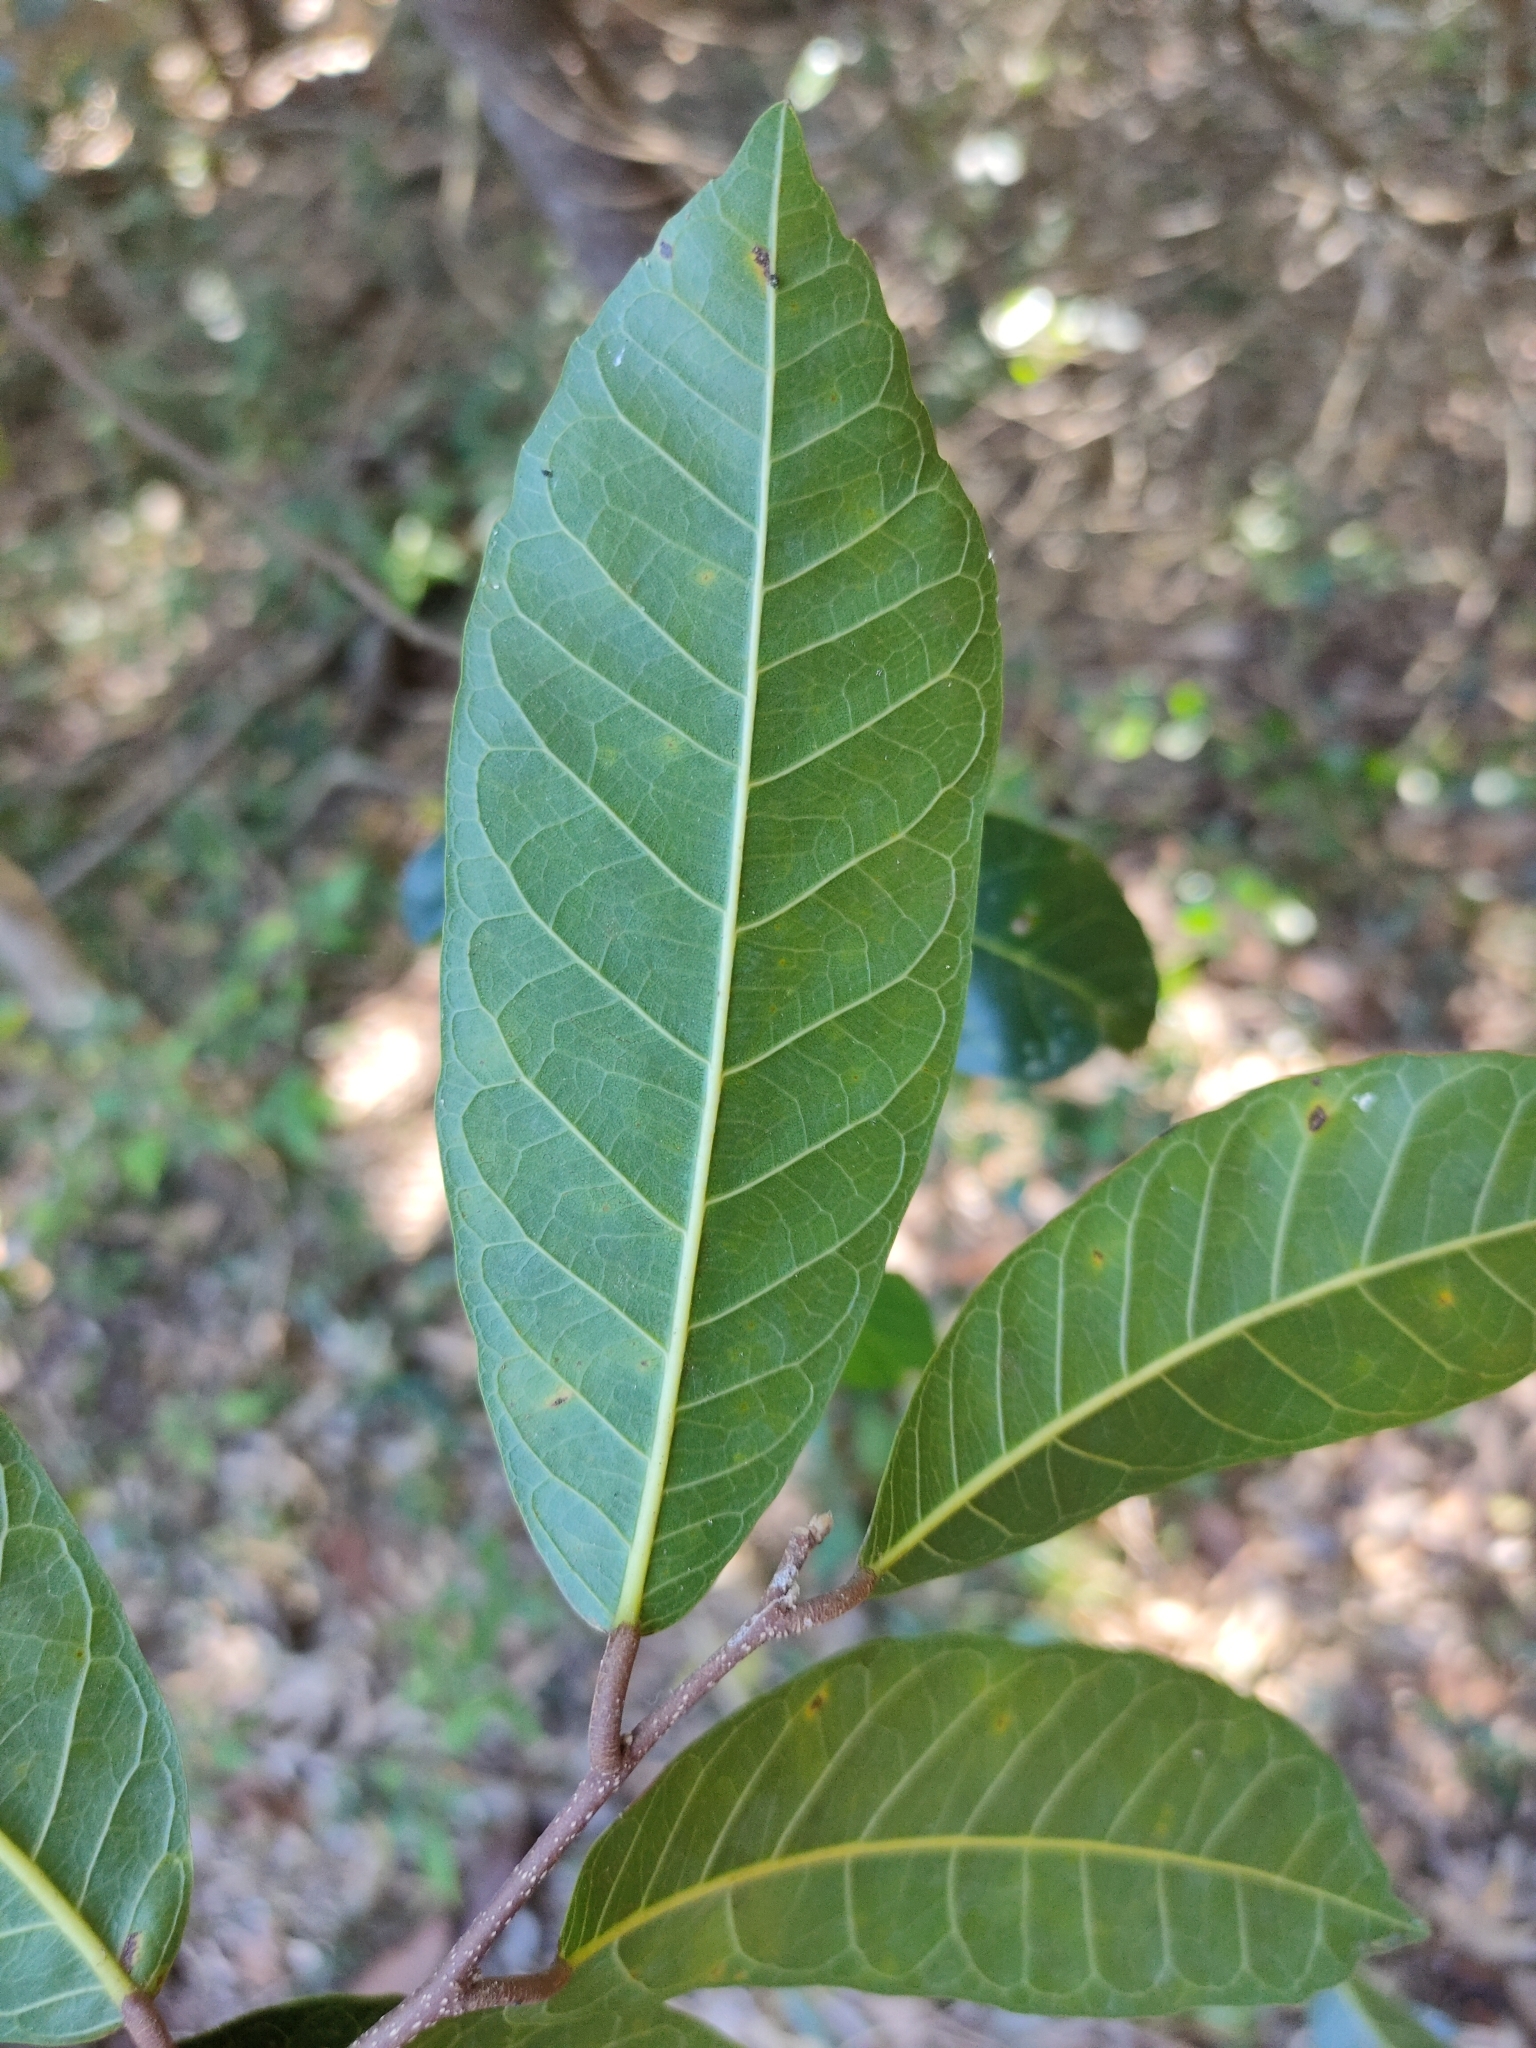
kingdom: Plantae
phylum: Tracheophyta
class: Magnoliopsida
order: Rosales
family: Moraceae
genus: Malaisia
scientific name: Malaisia scandens
